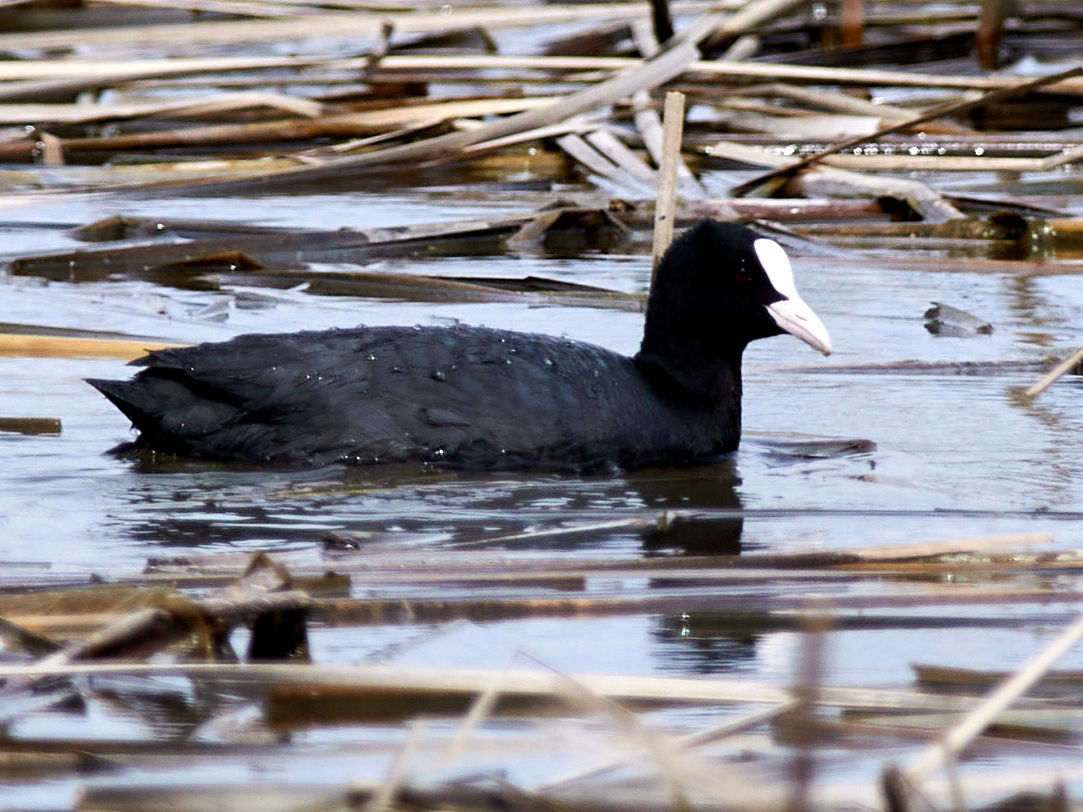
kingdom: Animalia
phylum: Chordata
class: Aves
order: Gruiformes
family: Rallidae
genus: Fulica
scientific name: Fulica atra
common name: Eurasian coot
